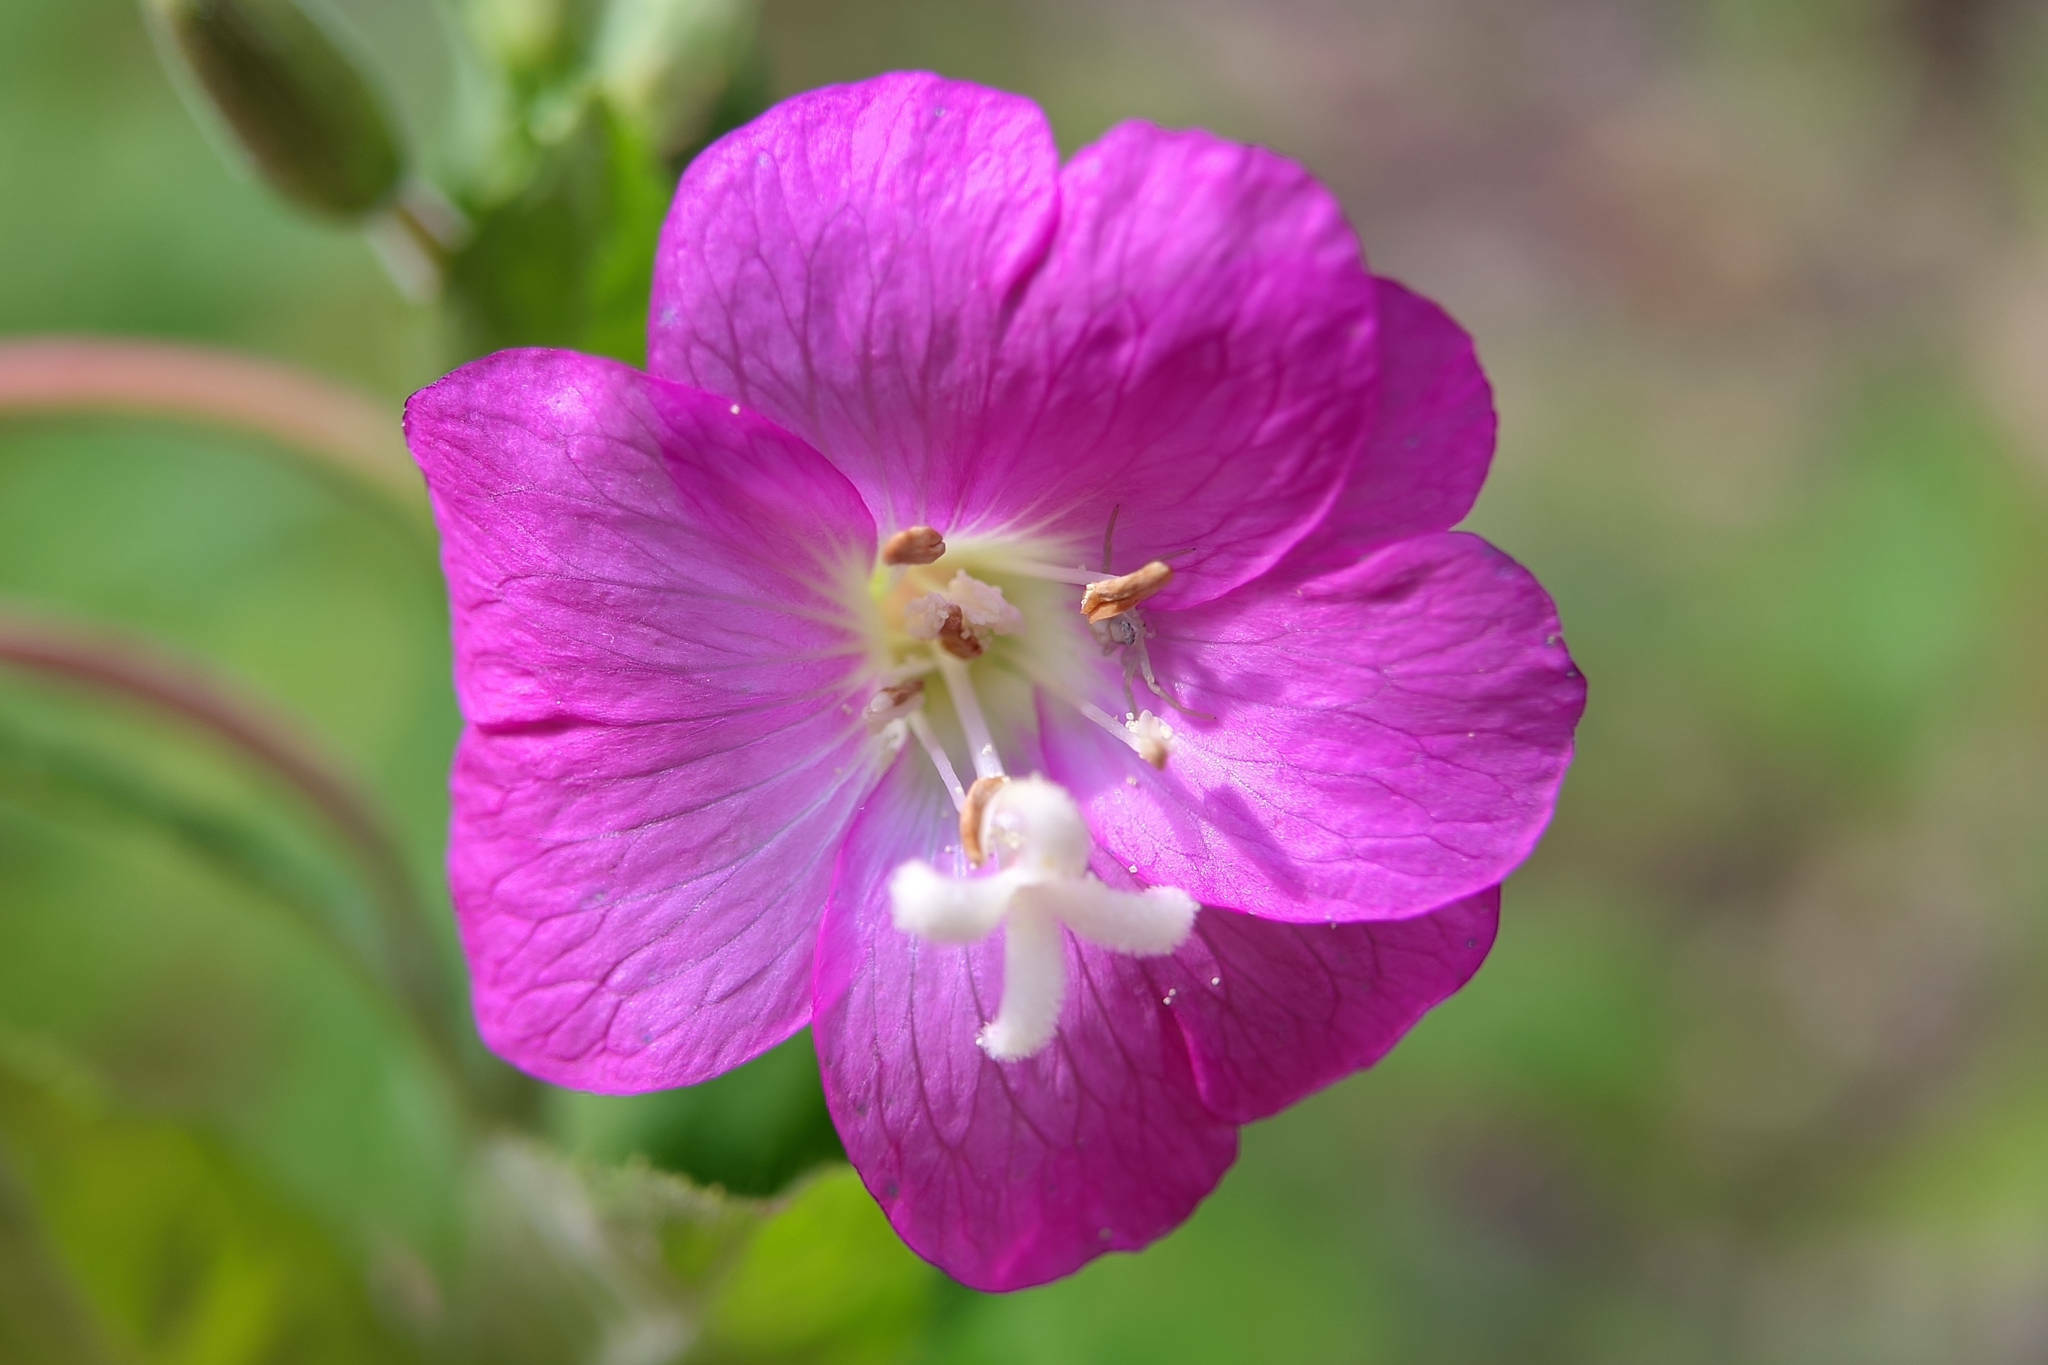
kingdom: Plantae
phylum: Tracheophyta
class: Magnoliopsida
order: Myrtales
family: Onagraceae
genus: Epilobium
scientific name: Epilobium hirsutum
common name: Great willowherb
